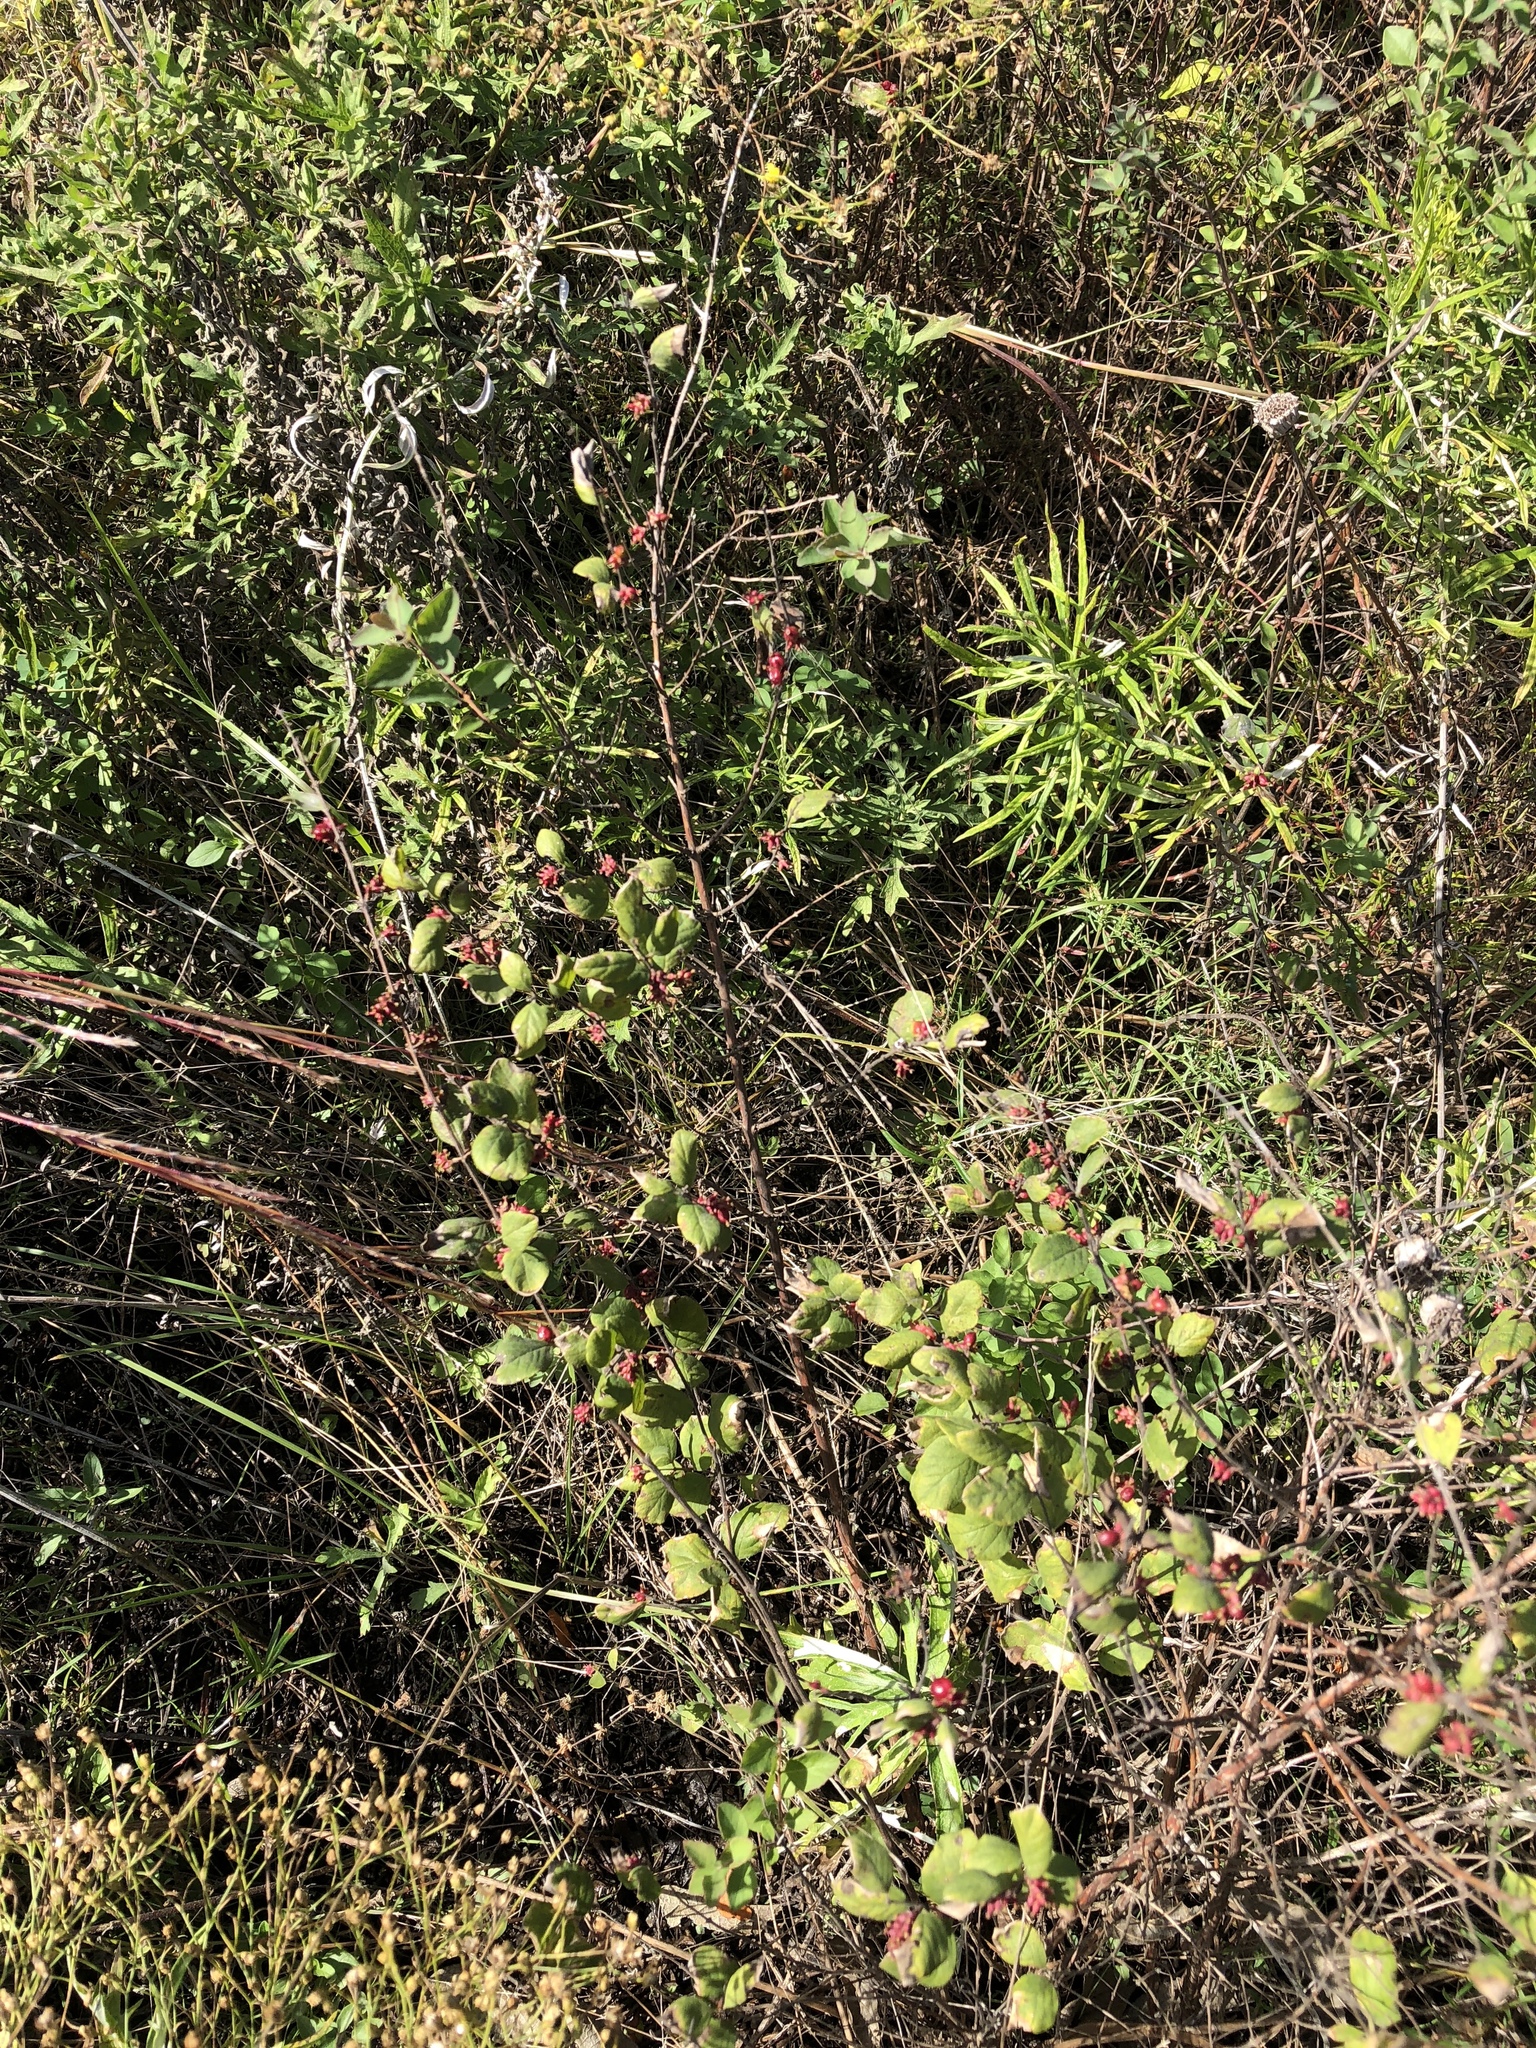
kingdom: Plantae
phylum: Tracheophyta
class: Magnoliopsida
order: Dipsacales
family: Caprifoliaceae
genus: Symphoricarpos
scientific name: Symphoricarpos orbiculatus
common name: Coralberry
